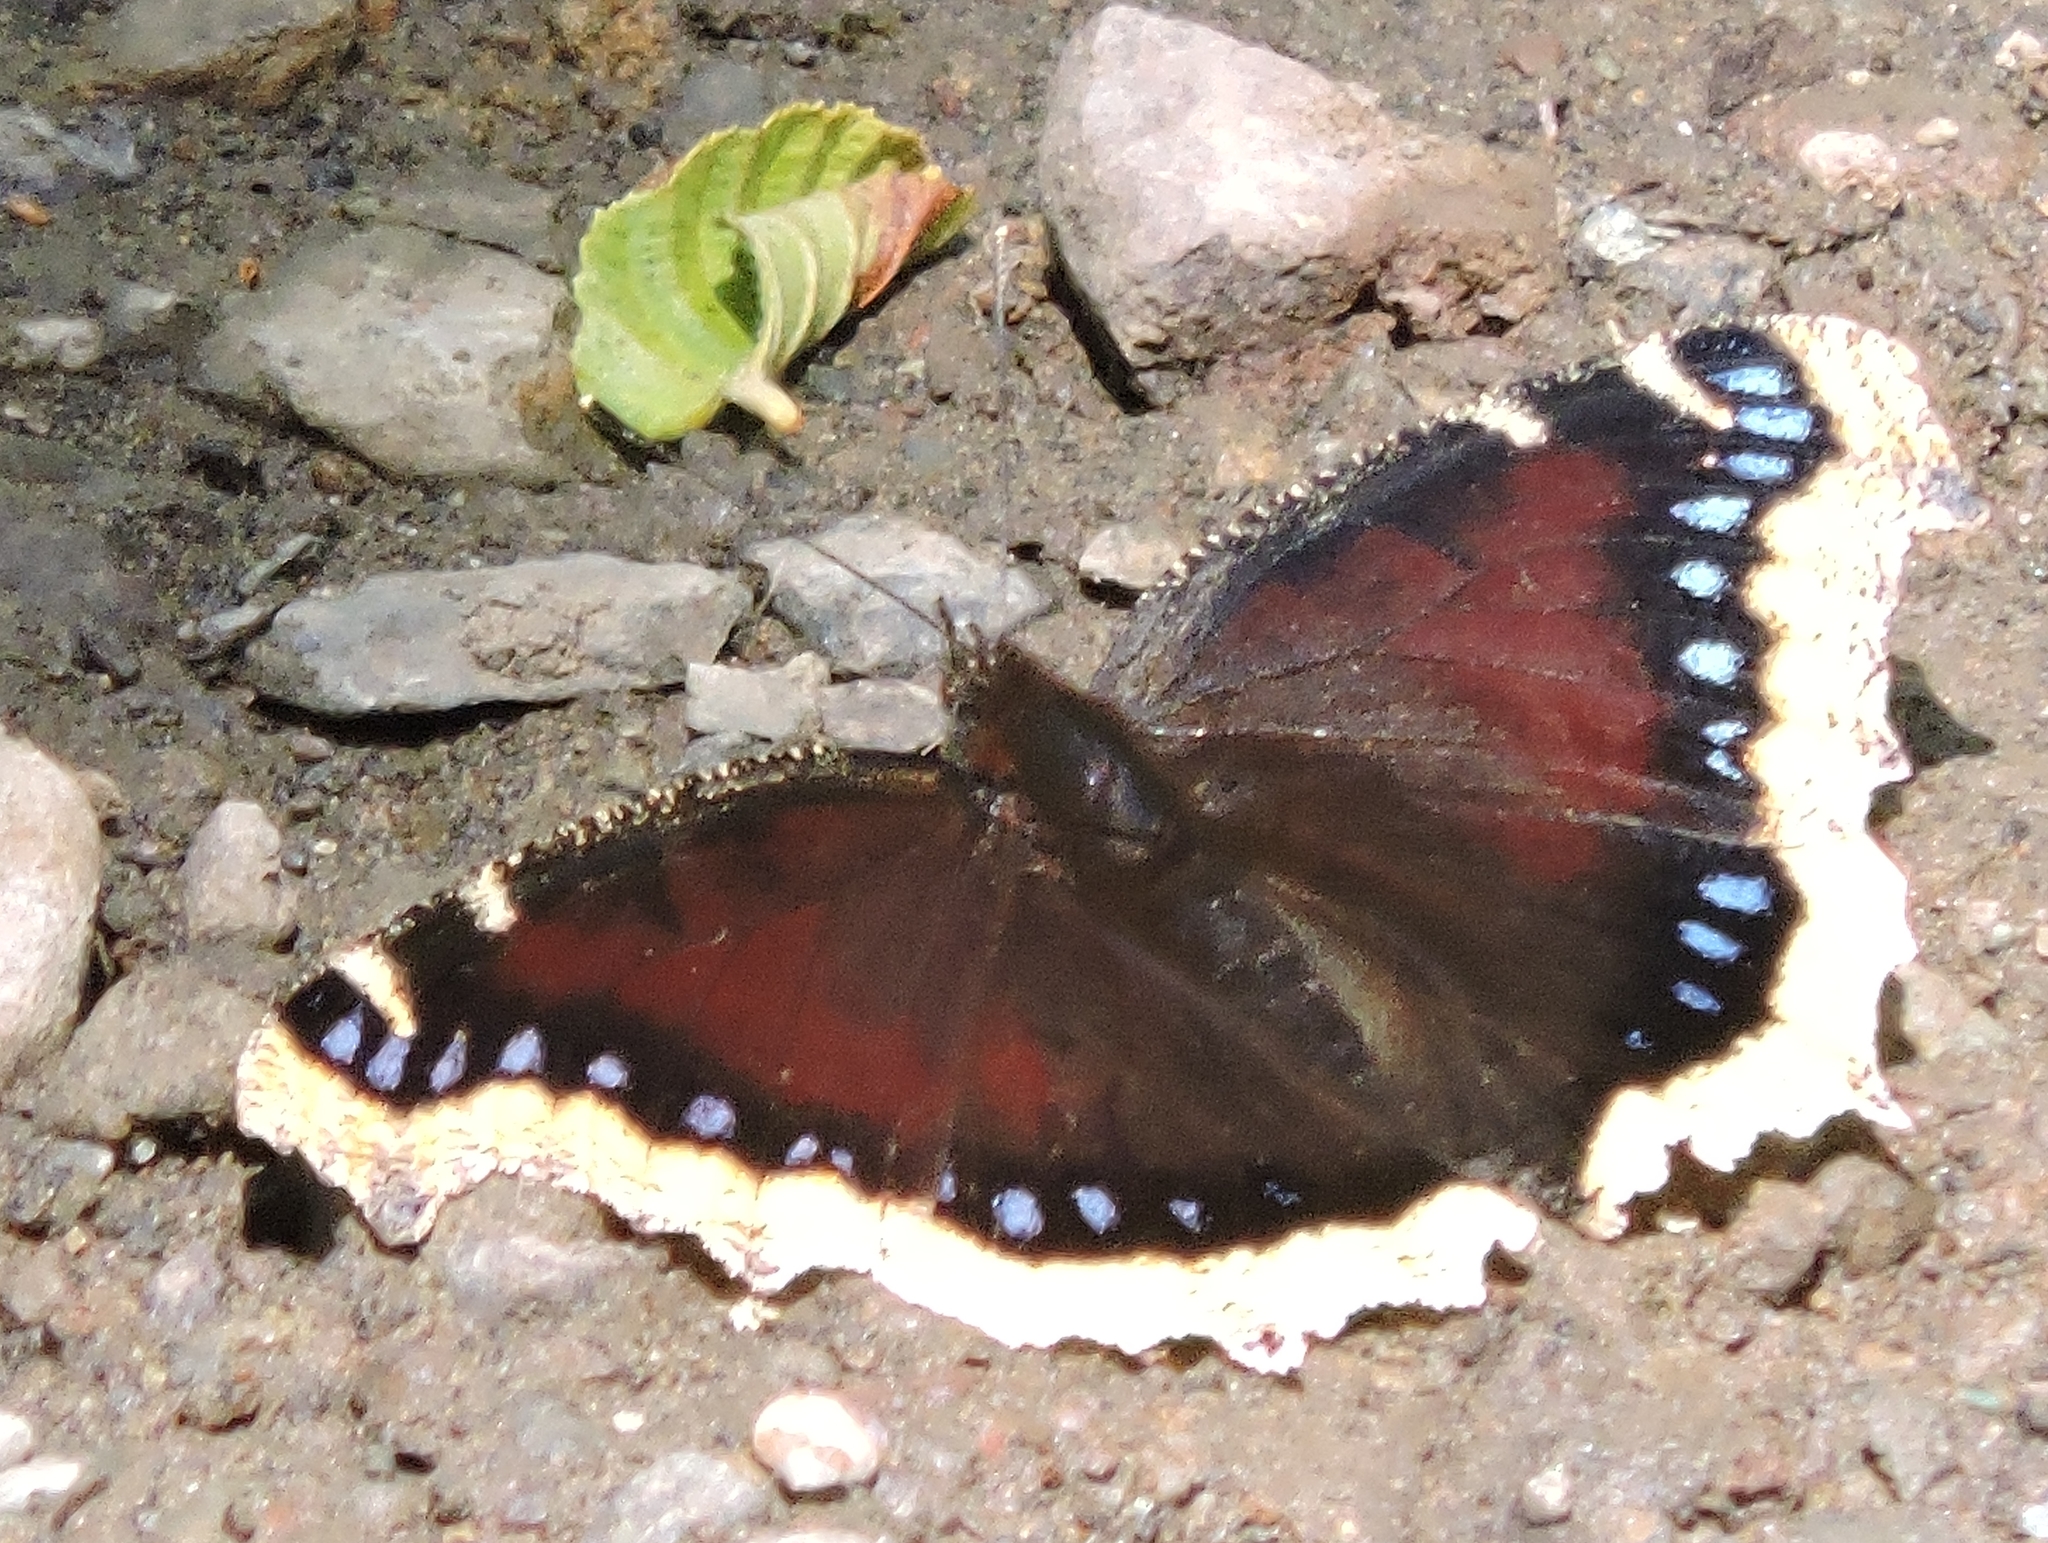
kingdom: Animalia
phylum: Arthropoda
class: Insecta
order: Lepidoptera
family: Nymphalidae
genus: Nymphalis
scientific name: Nymphalis antiopa
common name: Camberwell beauty
